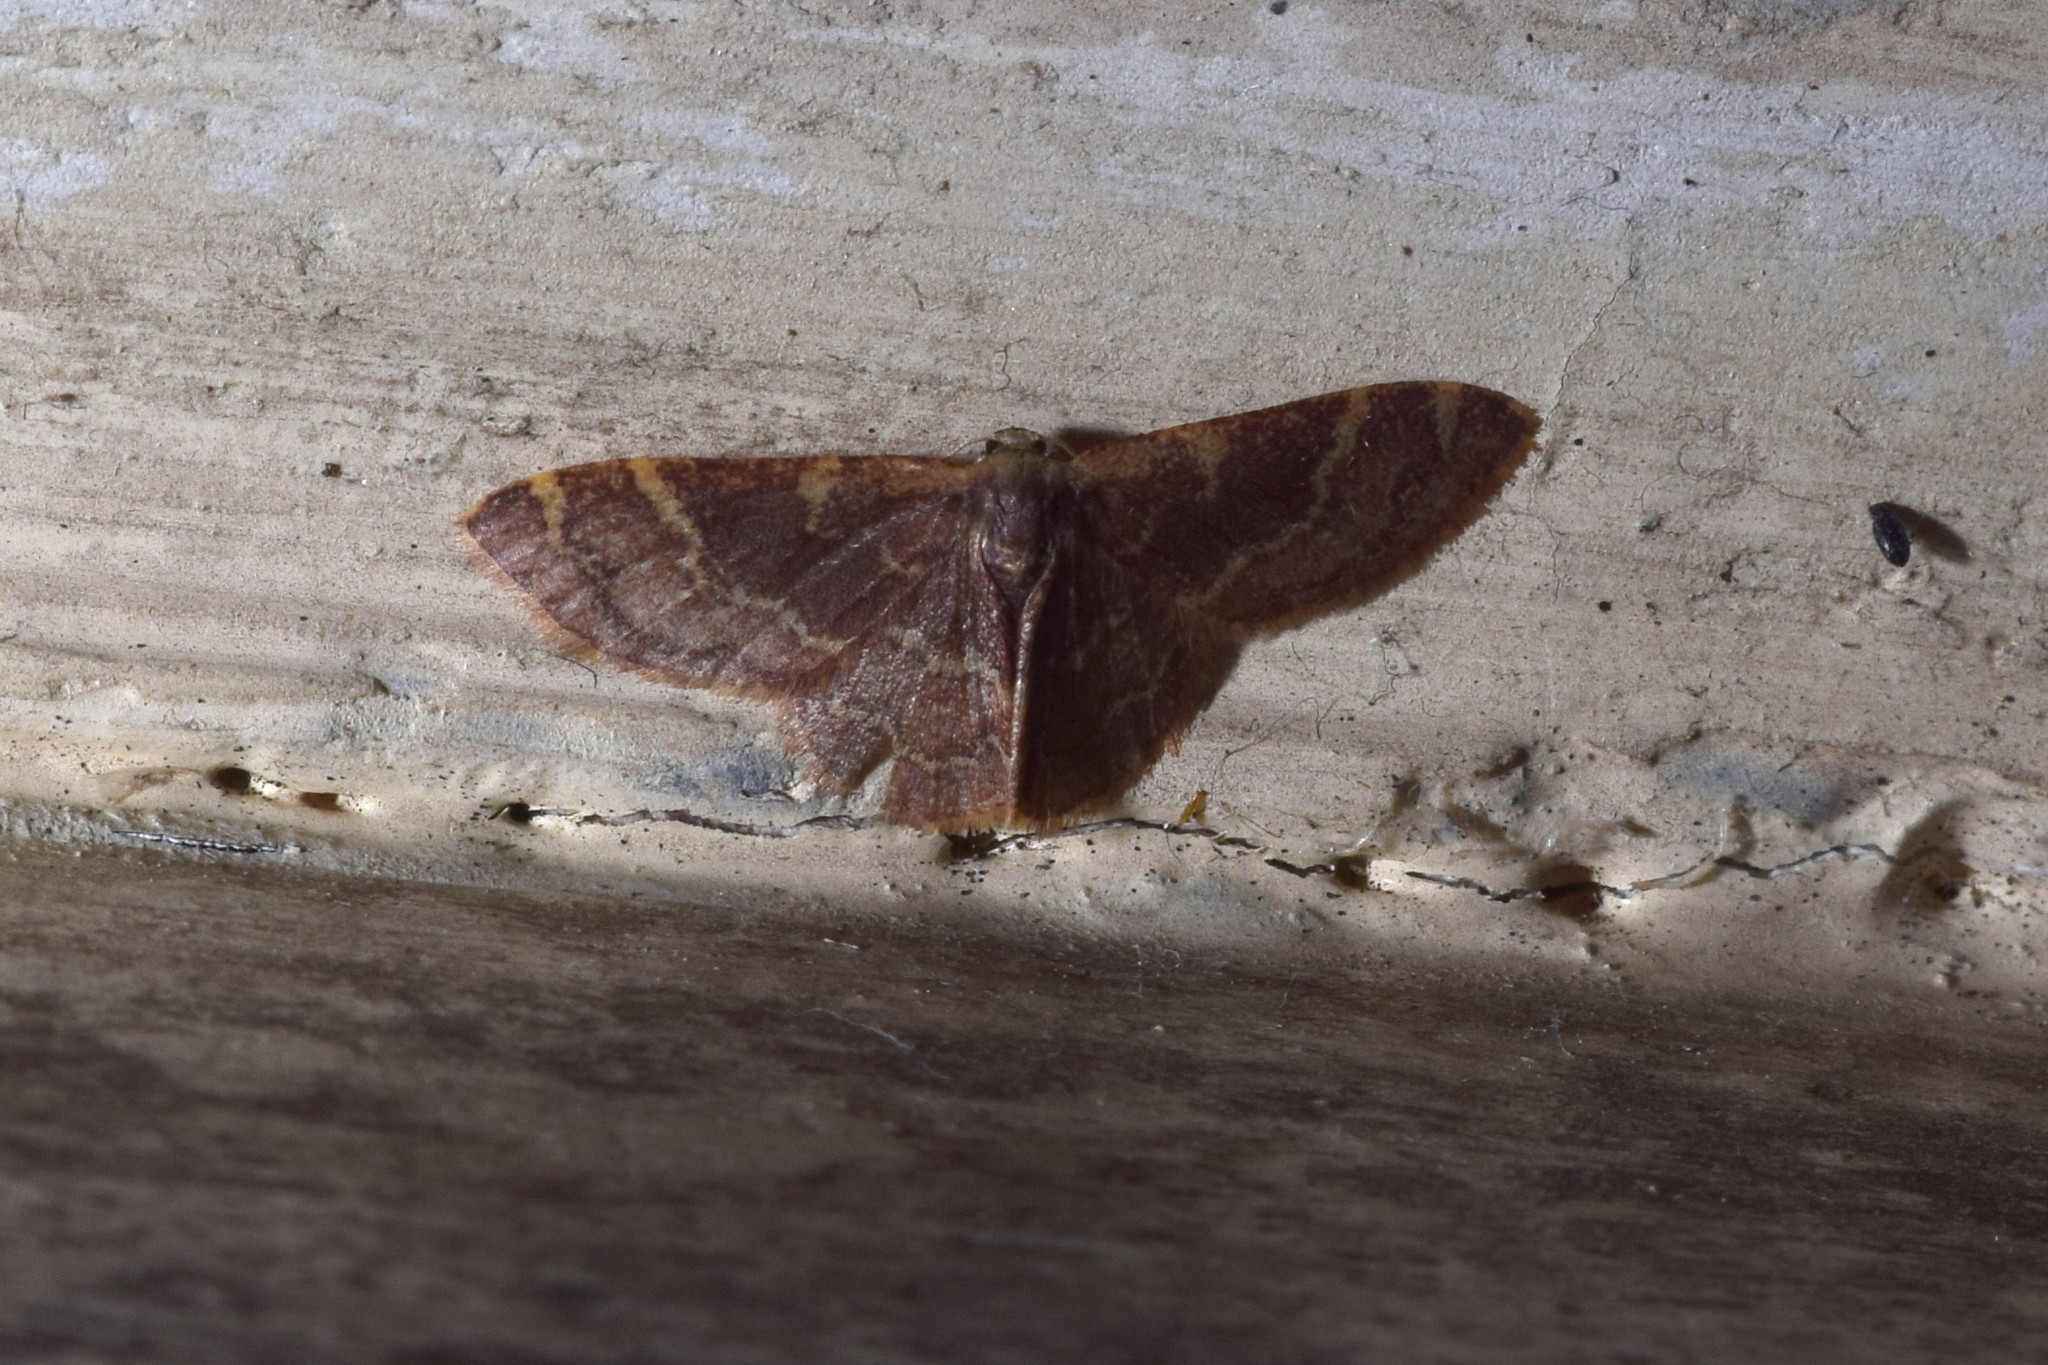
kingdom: Animalia
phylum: Arthropoda
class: Insecta
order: Lepidoptera
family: Geometridae
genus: Idaea
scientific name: Idaea insuavis
